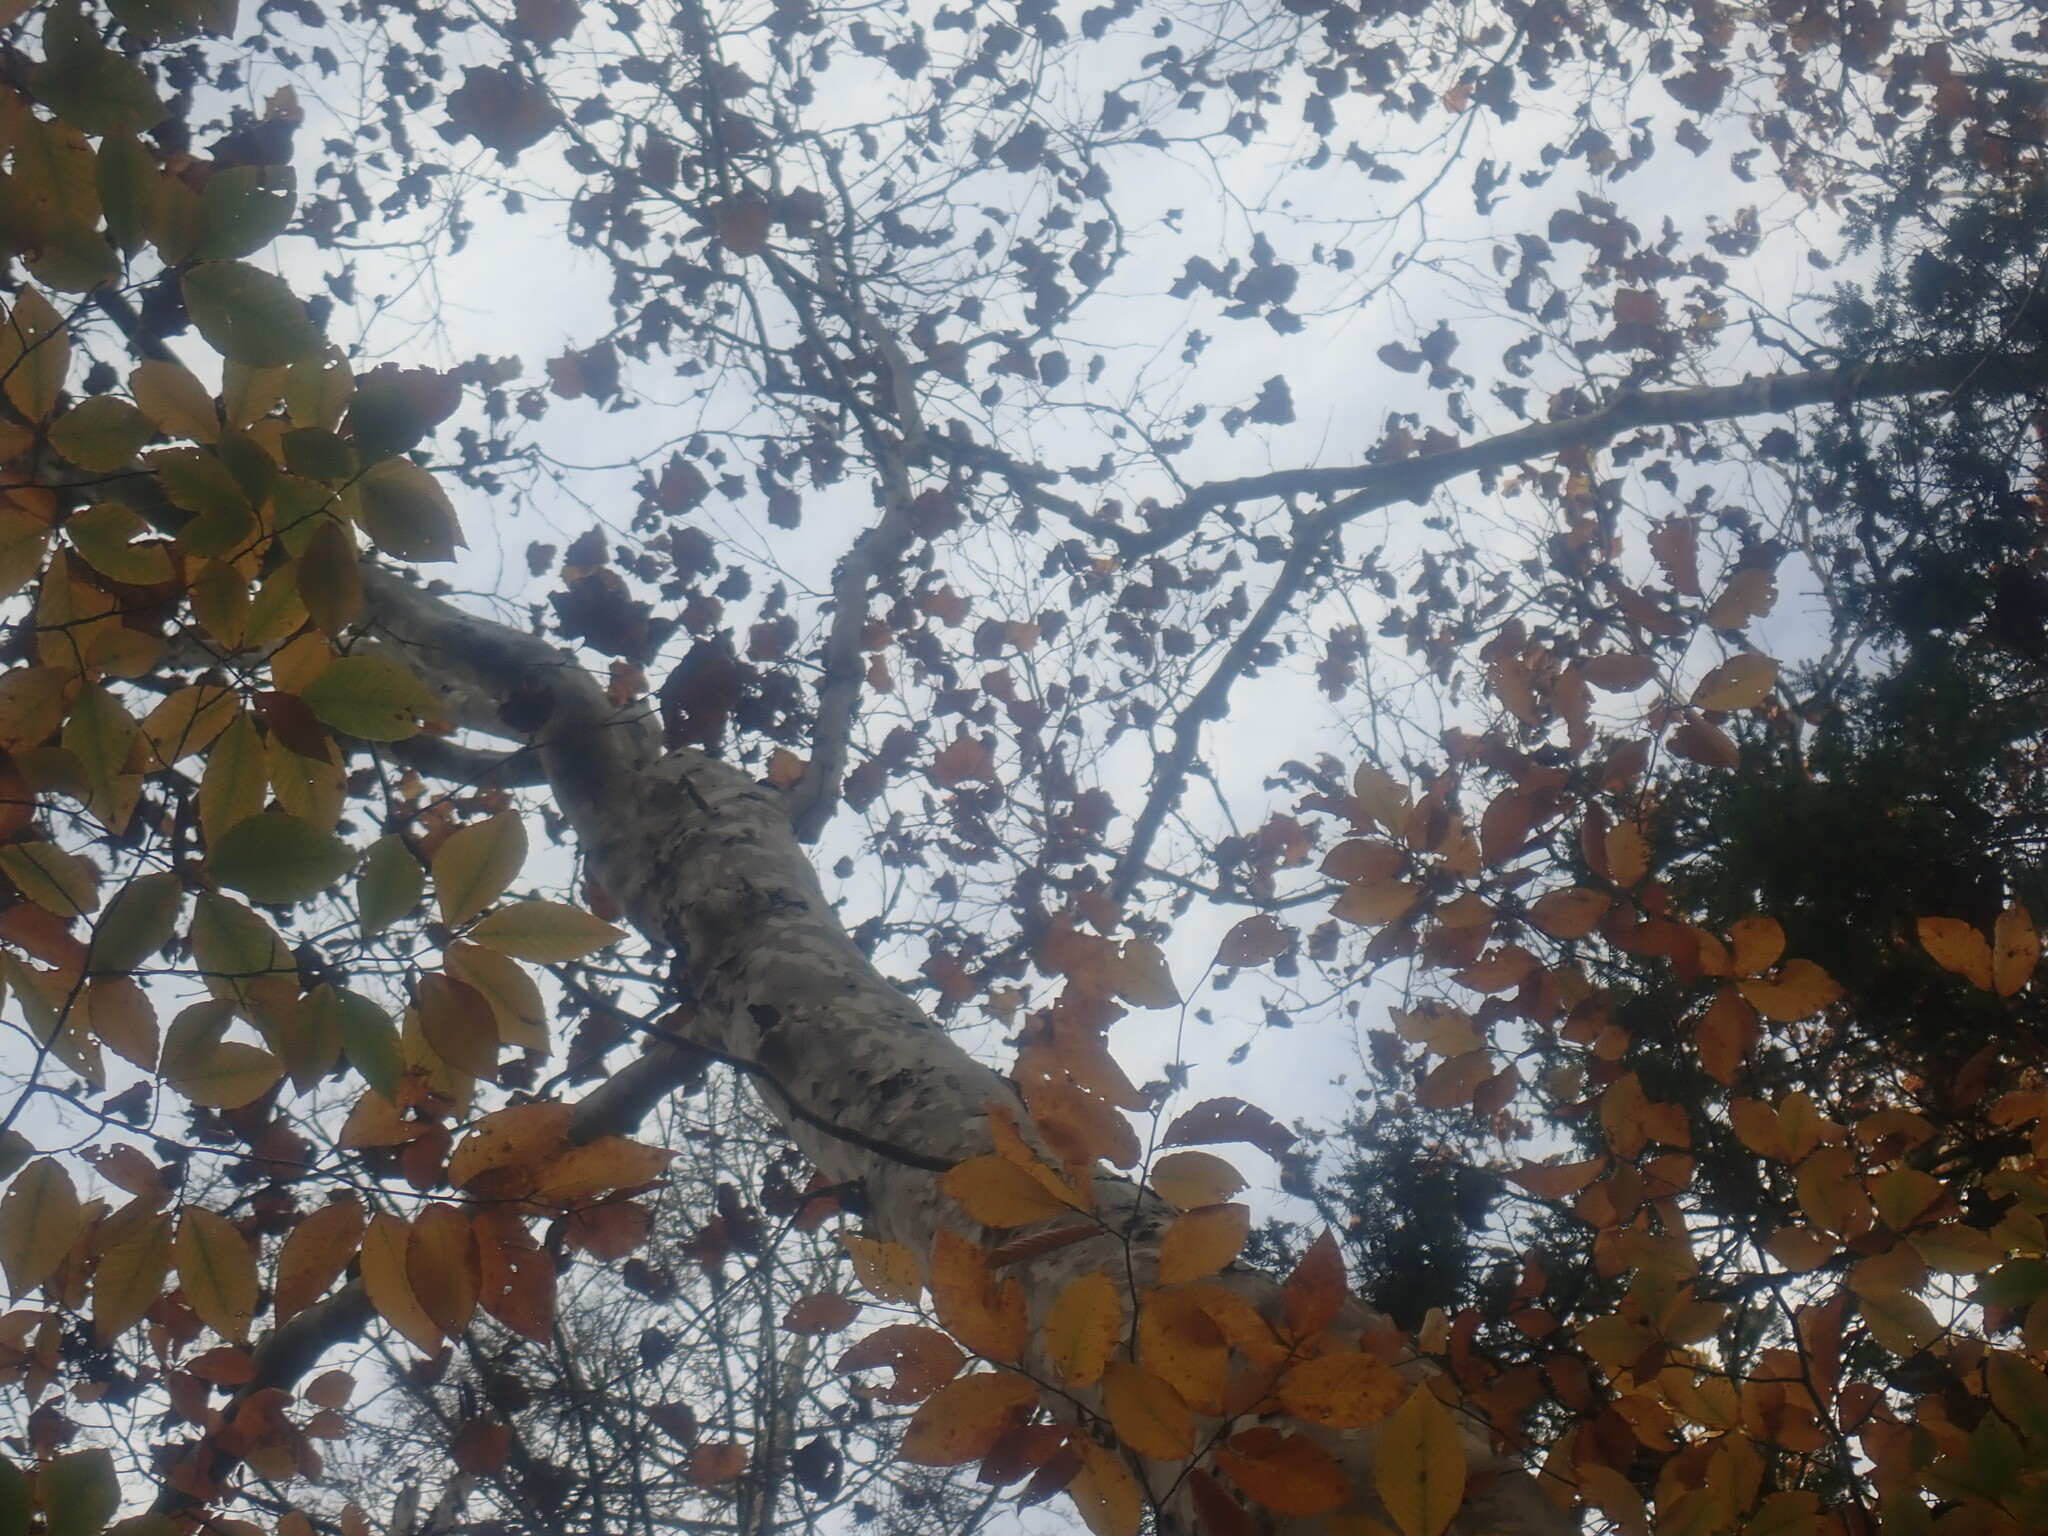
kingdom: Plantae
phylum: Tracheophyta
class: Magnoliopsida
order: Proteales
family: Platanaceae
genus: Platanus
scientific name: Platanus occidentalis
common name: American sycamore
